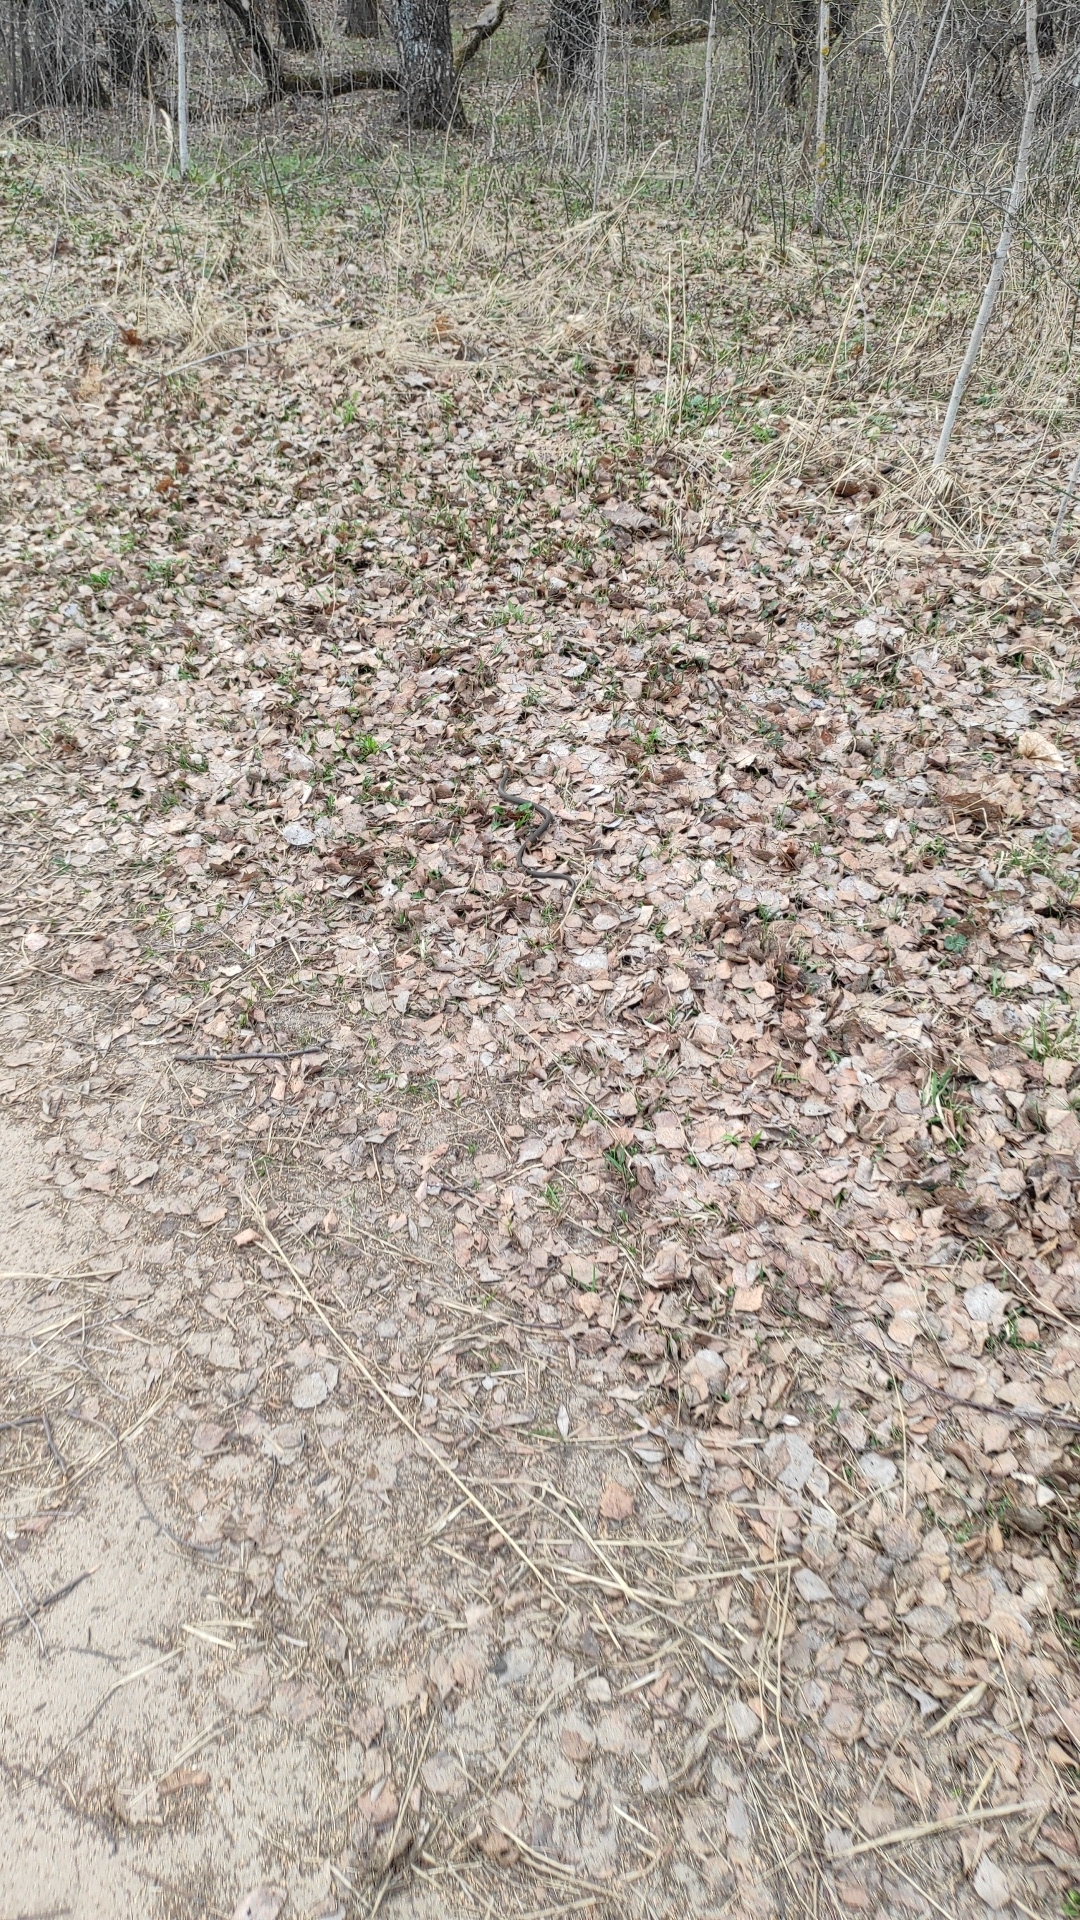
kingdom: Animalia
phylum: Chordata
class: Squamata
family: Colubridae
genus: Natrix
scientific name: Natrix natrix
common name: Grass snake
